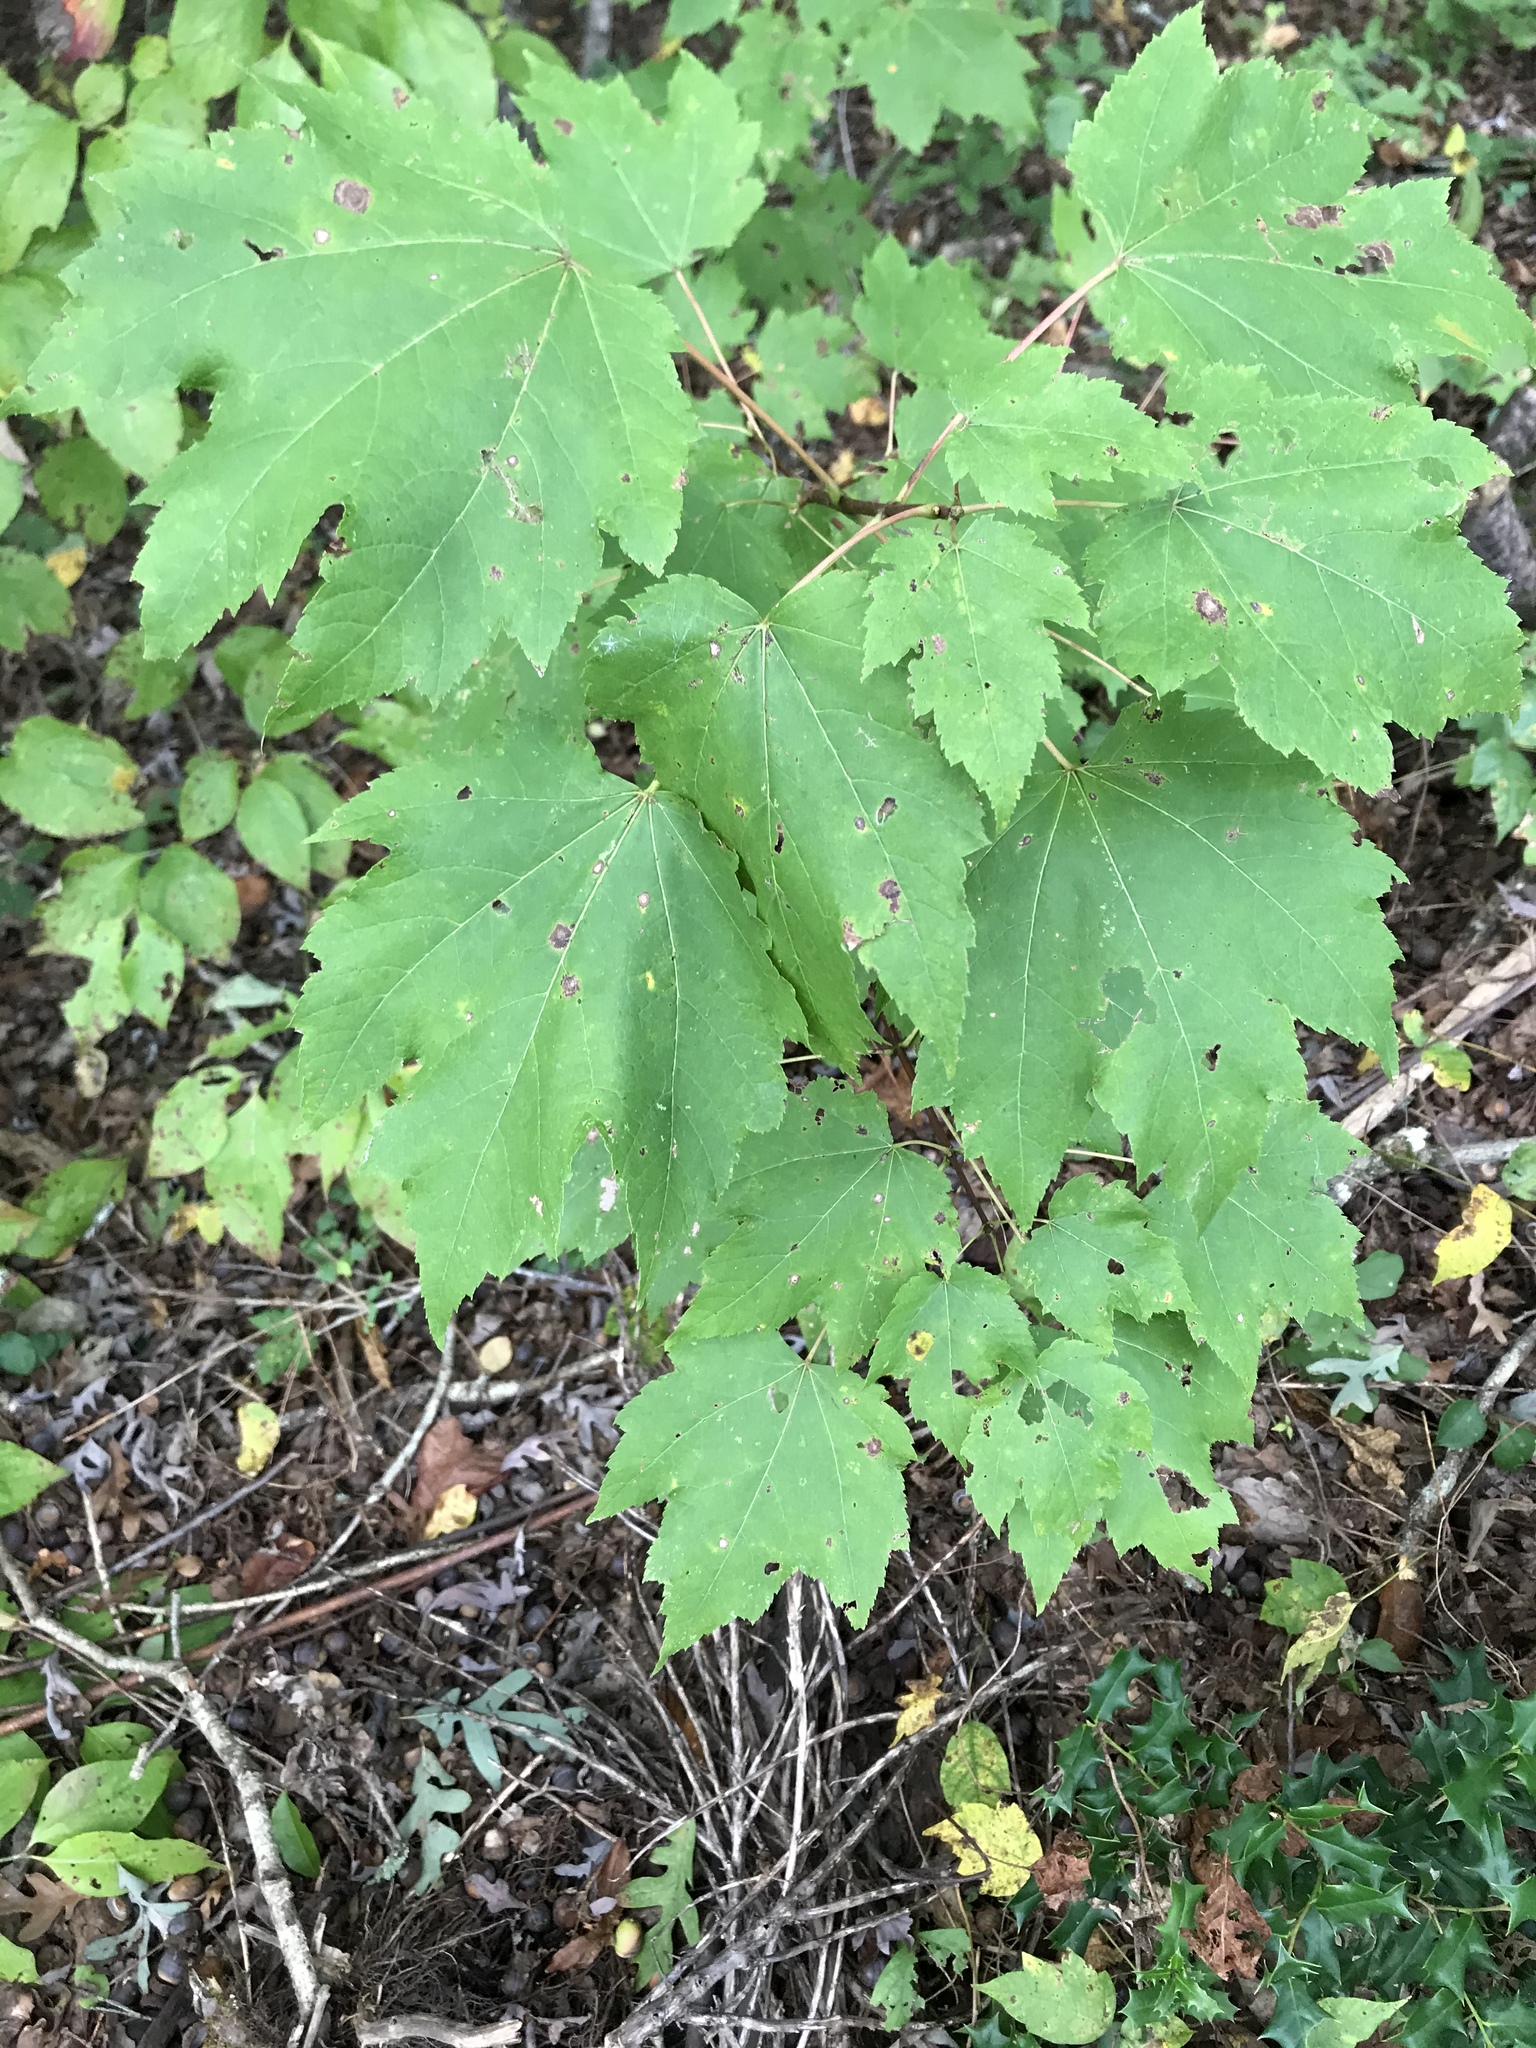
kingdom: Plantae
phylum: Tracheophyta
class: Magnoliopsida
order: Sapindales
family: Sapindaceae
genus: Acer
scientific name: Acer rubrum
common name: Red maple
